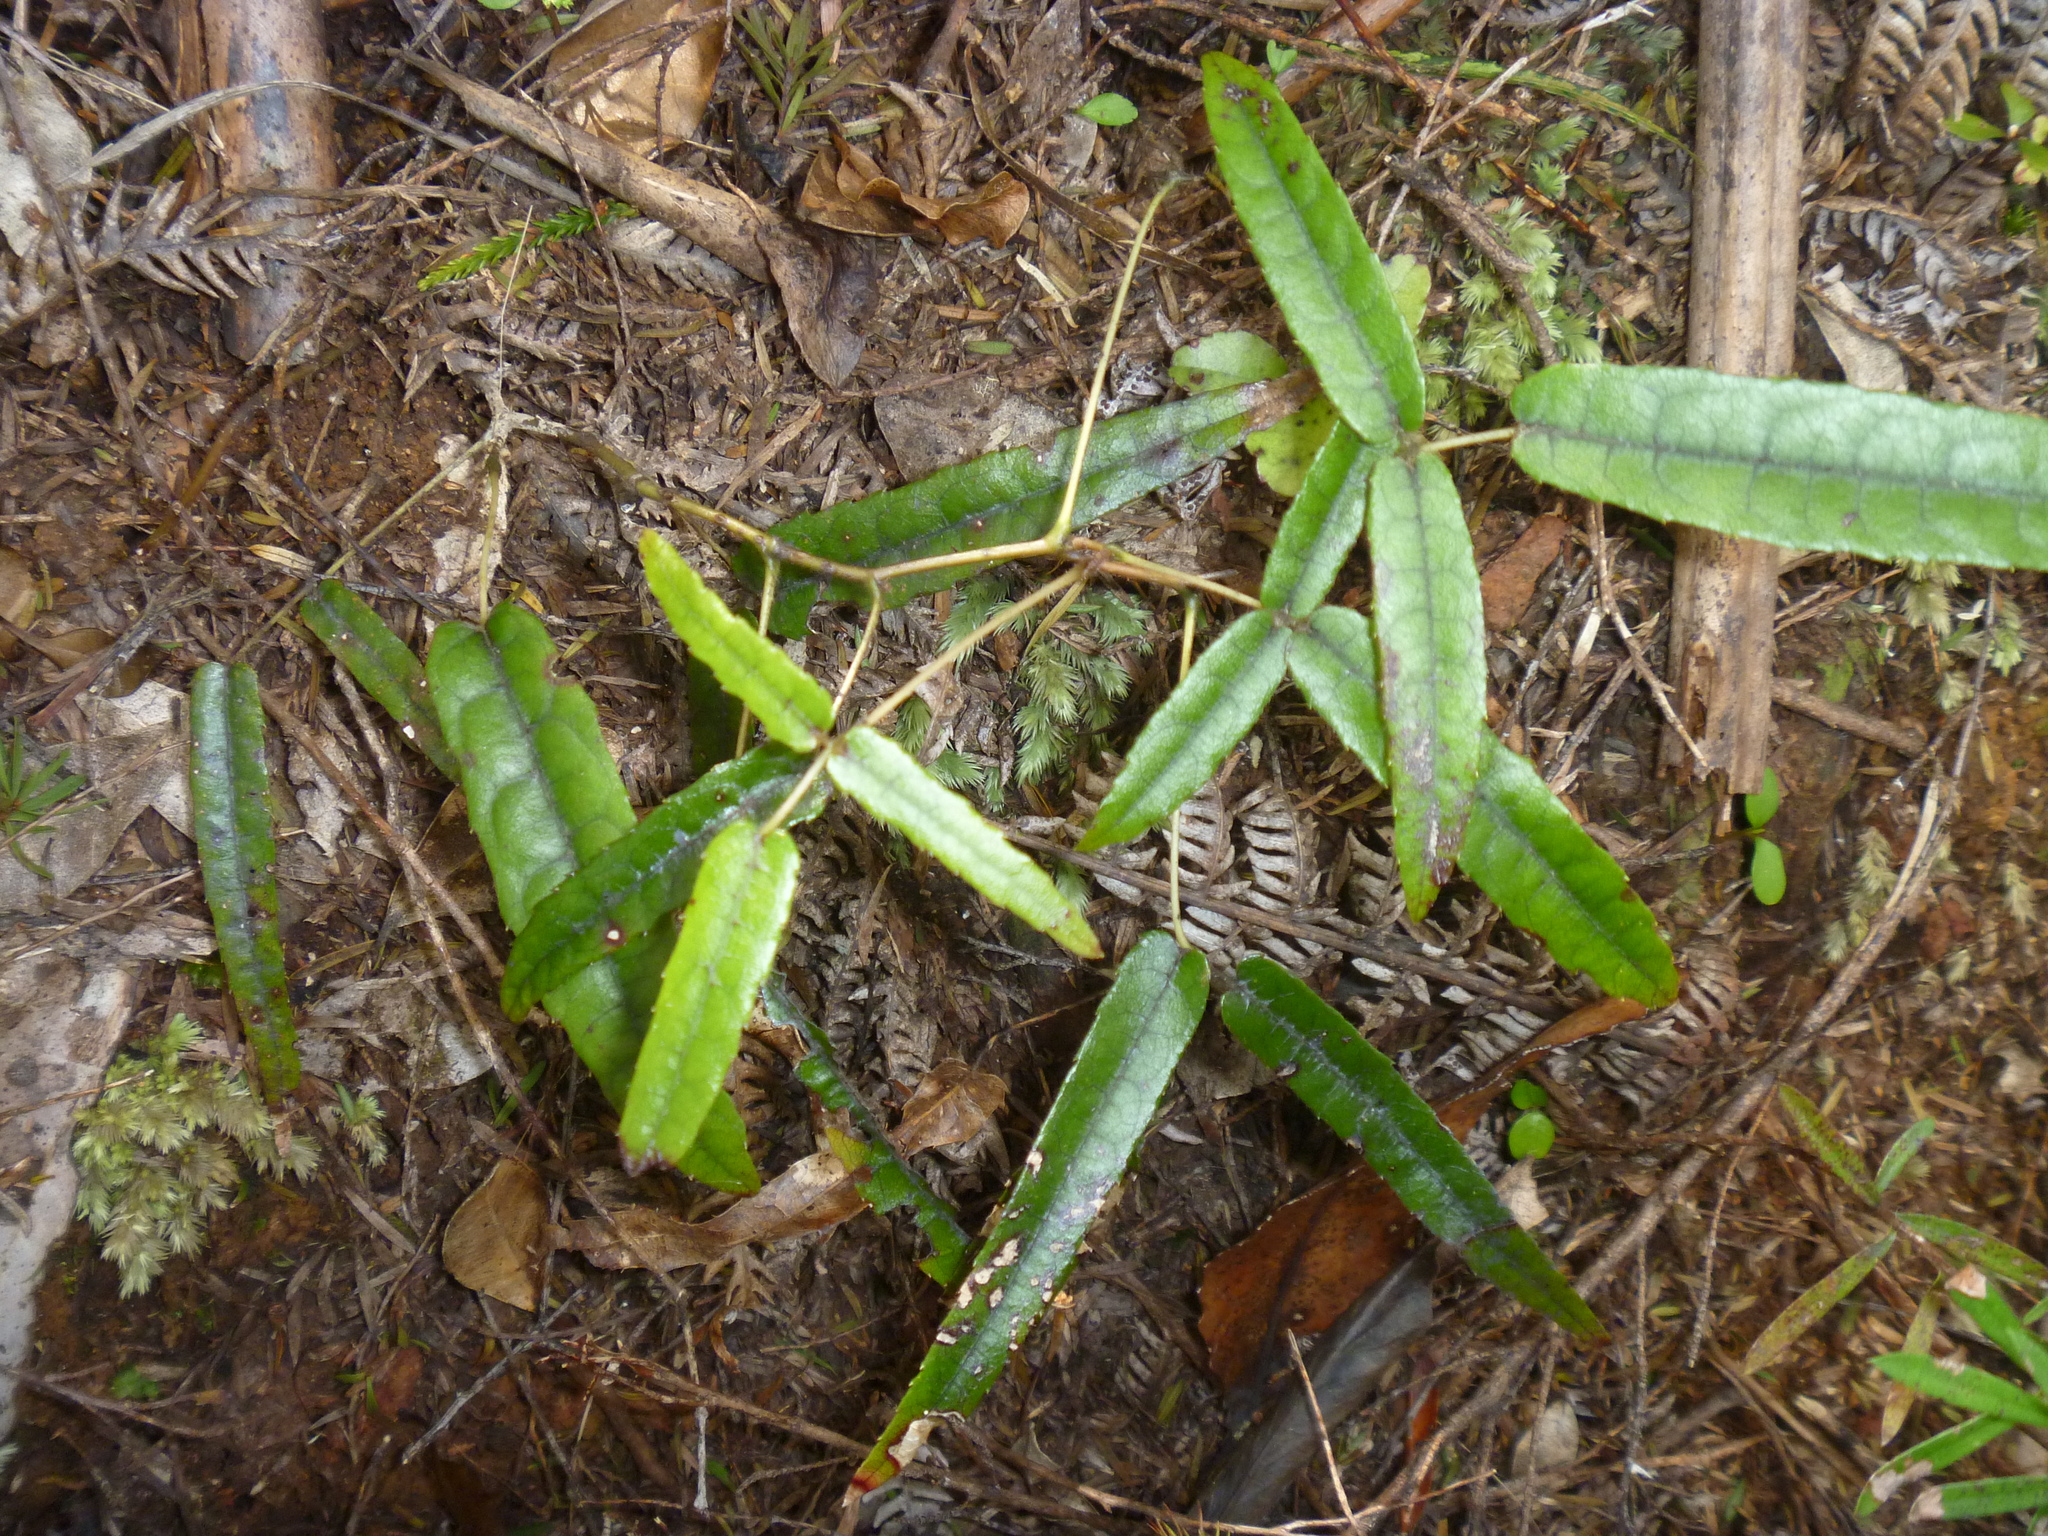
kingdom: Plantae
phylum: Tracheophyta
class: Magnoliopsida
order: Rosales
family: Rosaceae
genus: Rubus
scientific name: Rubus cissoides
